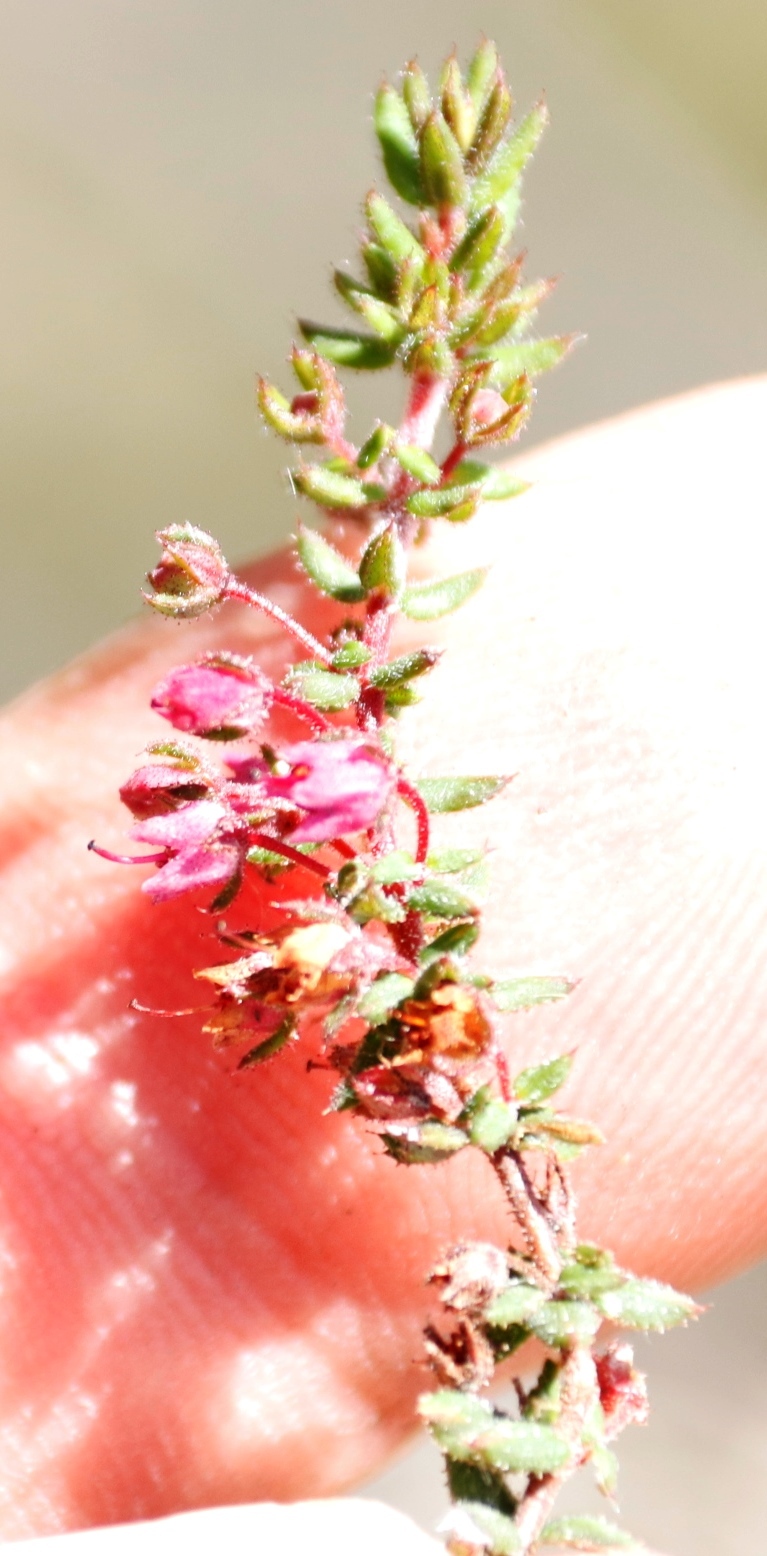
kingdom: Plantae
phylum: Tracheophyta
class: Magnoliopsida
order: Ericales
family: Ericaceae
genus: Erica
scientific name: Erica planifolia
